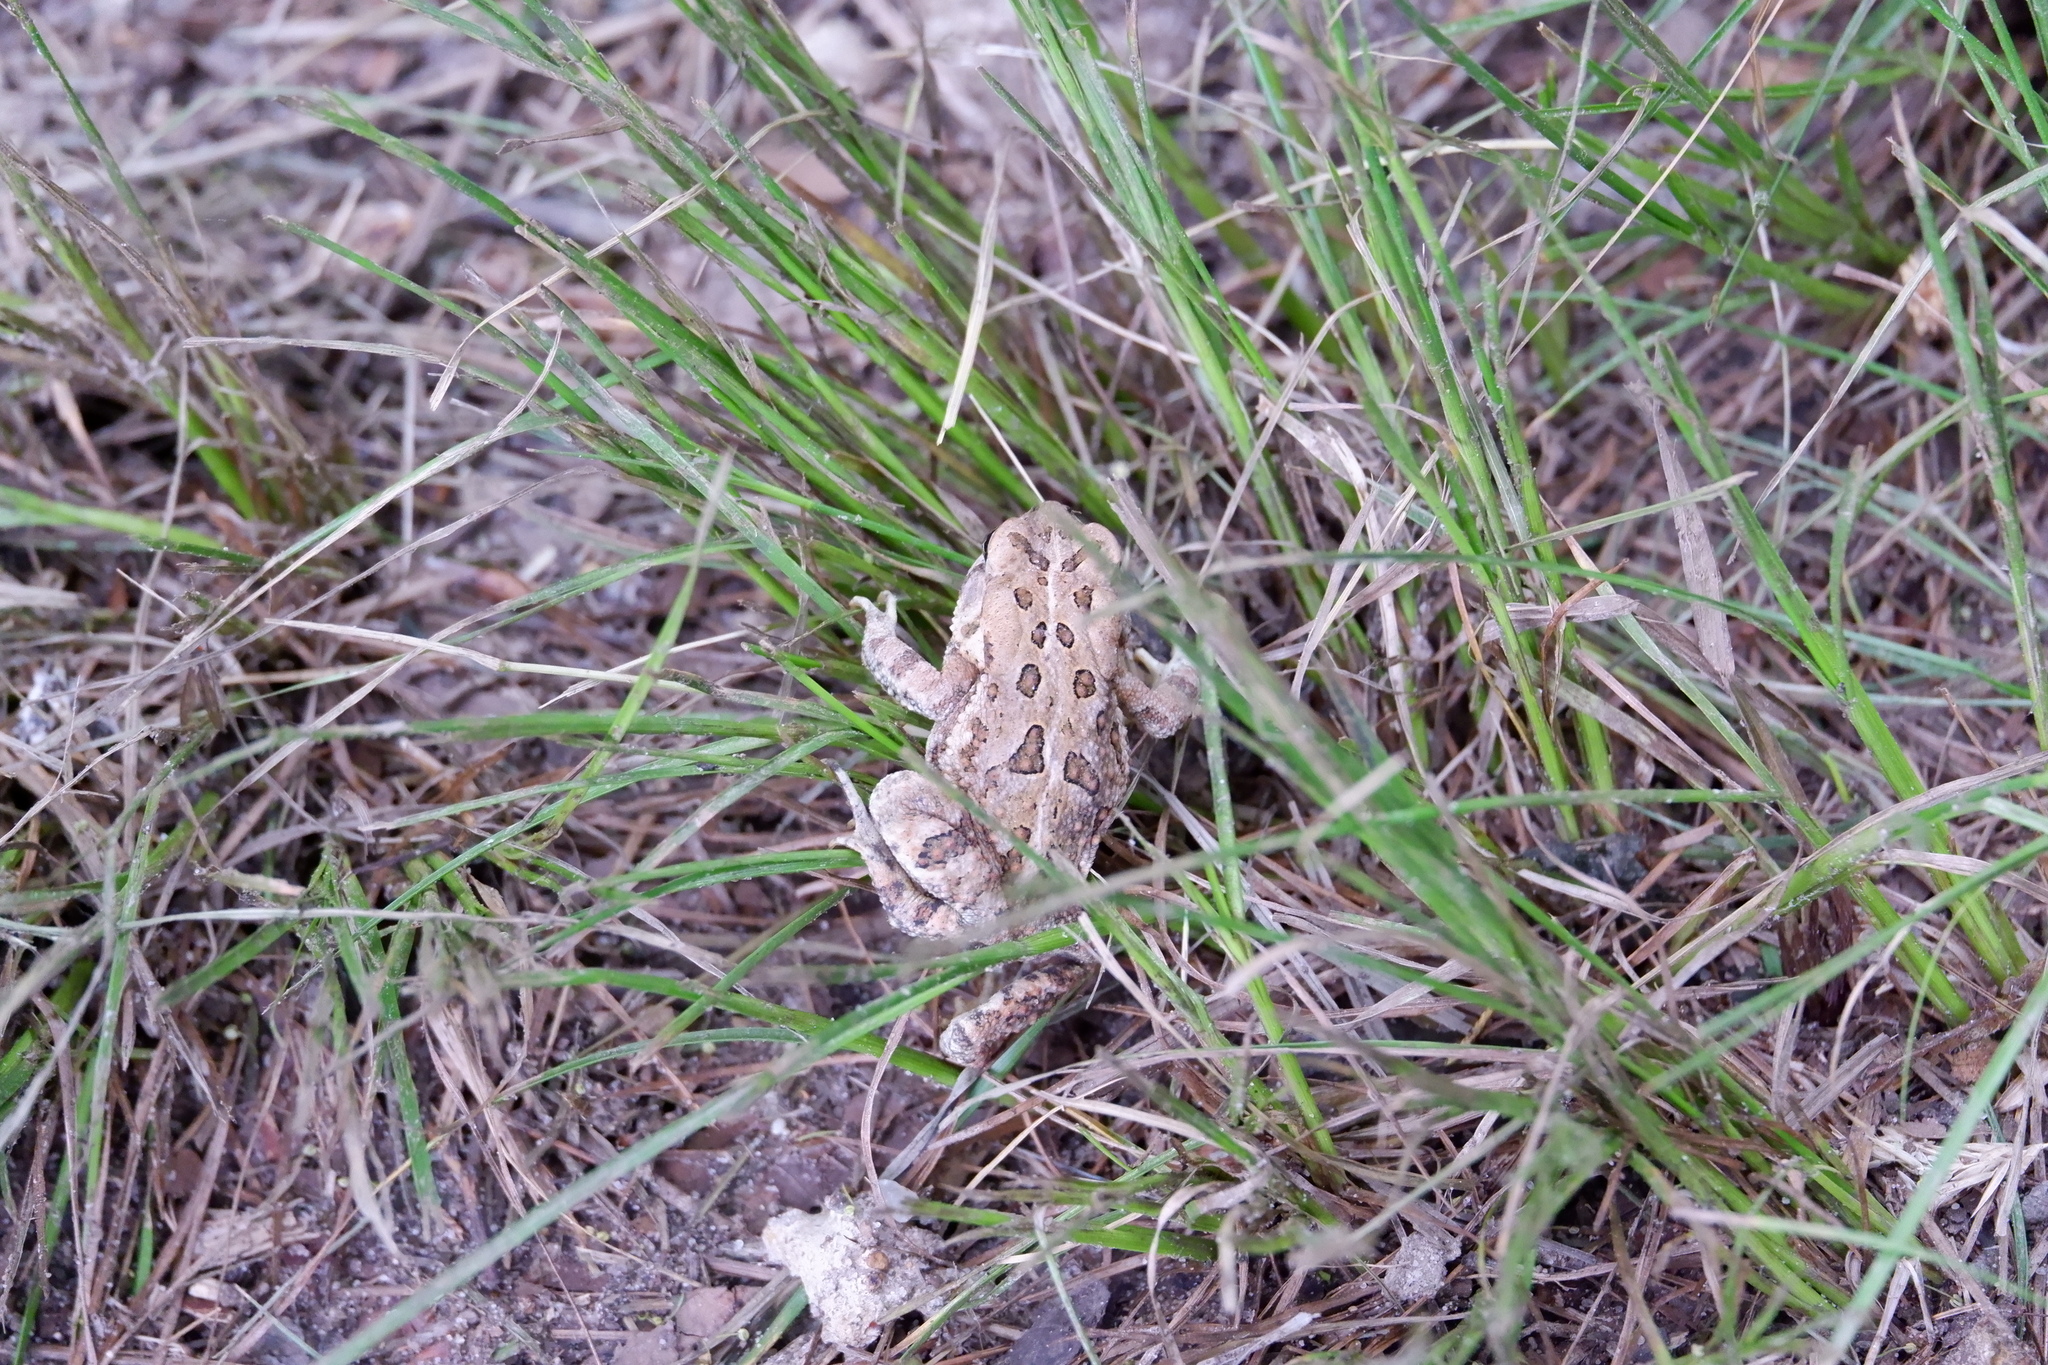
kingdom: Animalia
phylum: Chordata
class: Amphibia
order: Anura
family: Bufonidae
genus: Anaxyrus
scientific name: Anaxyrus fowleri
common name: Fowler's toad
